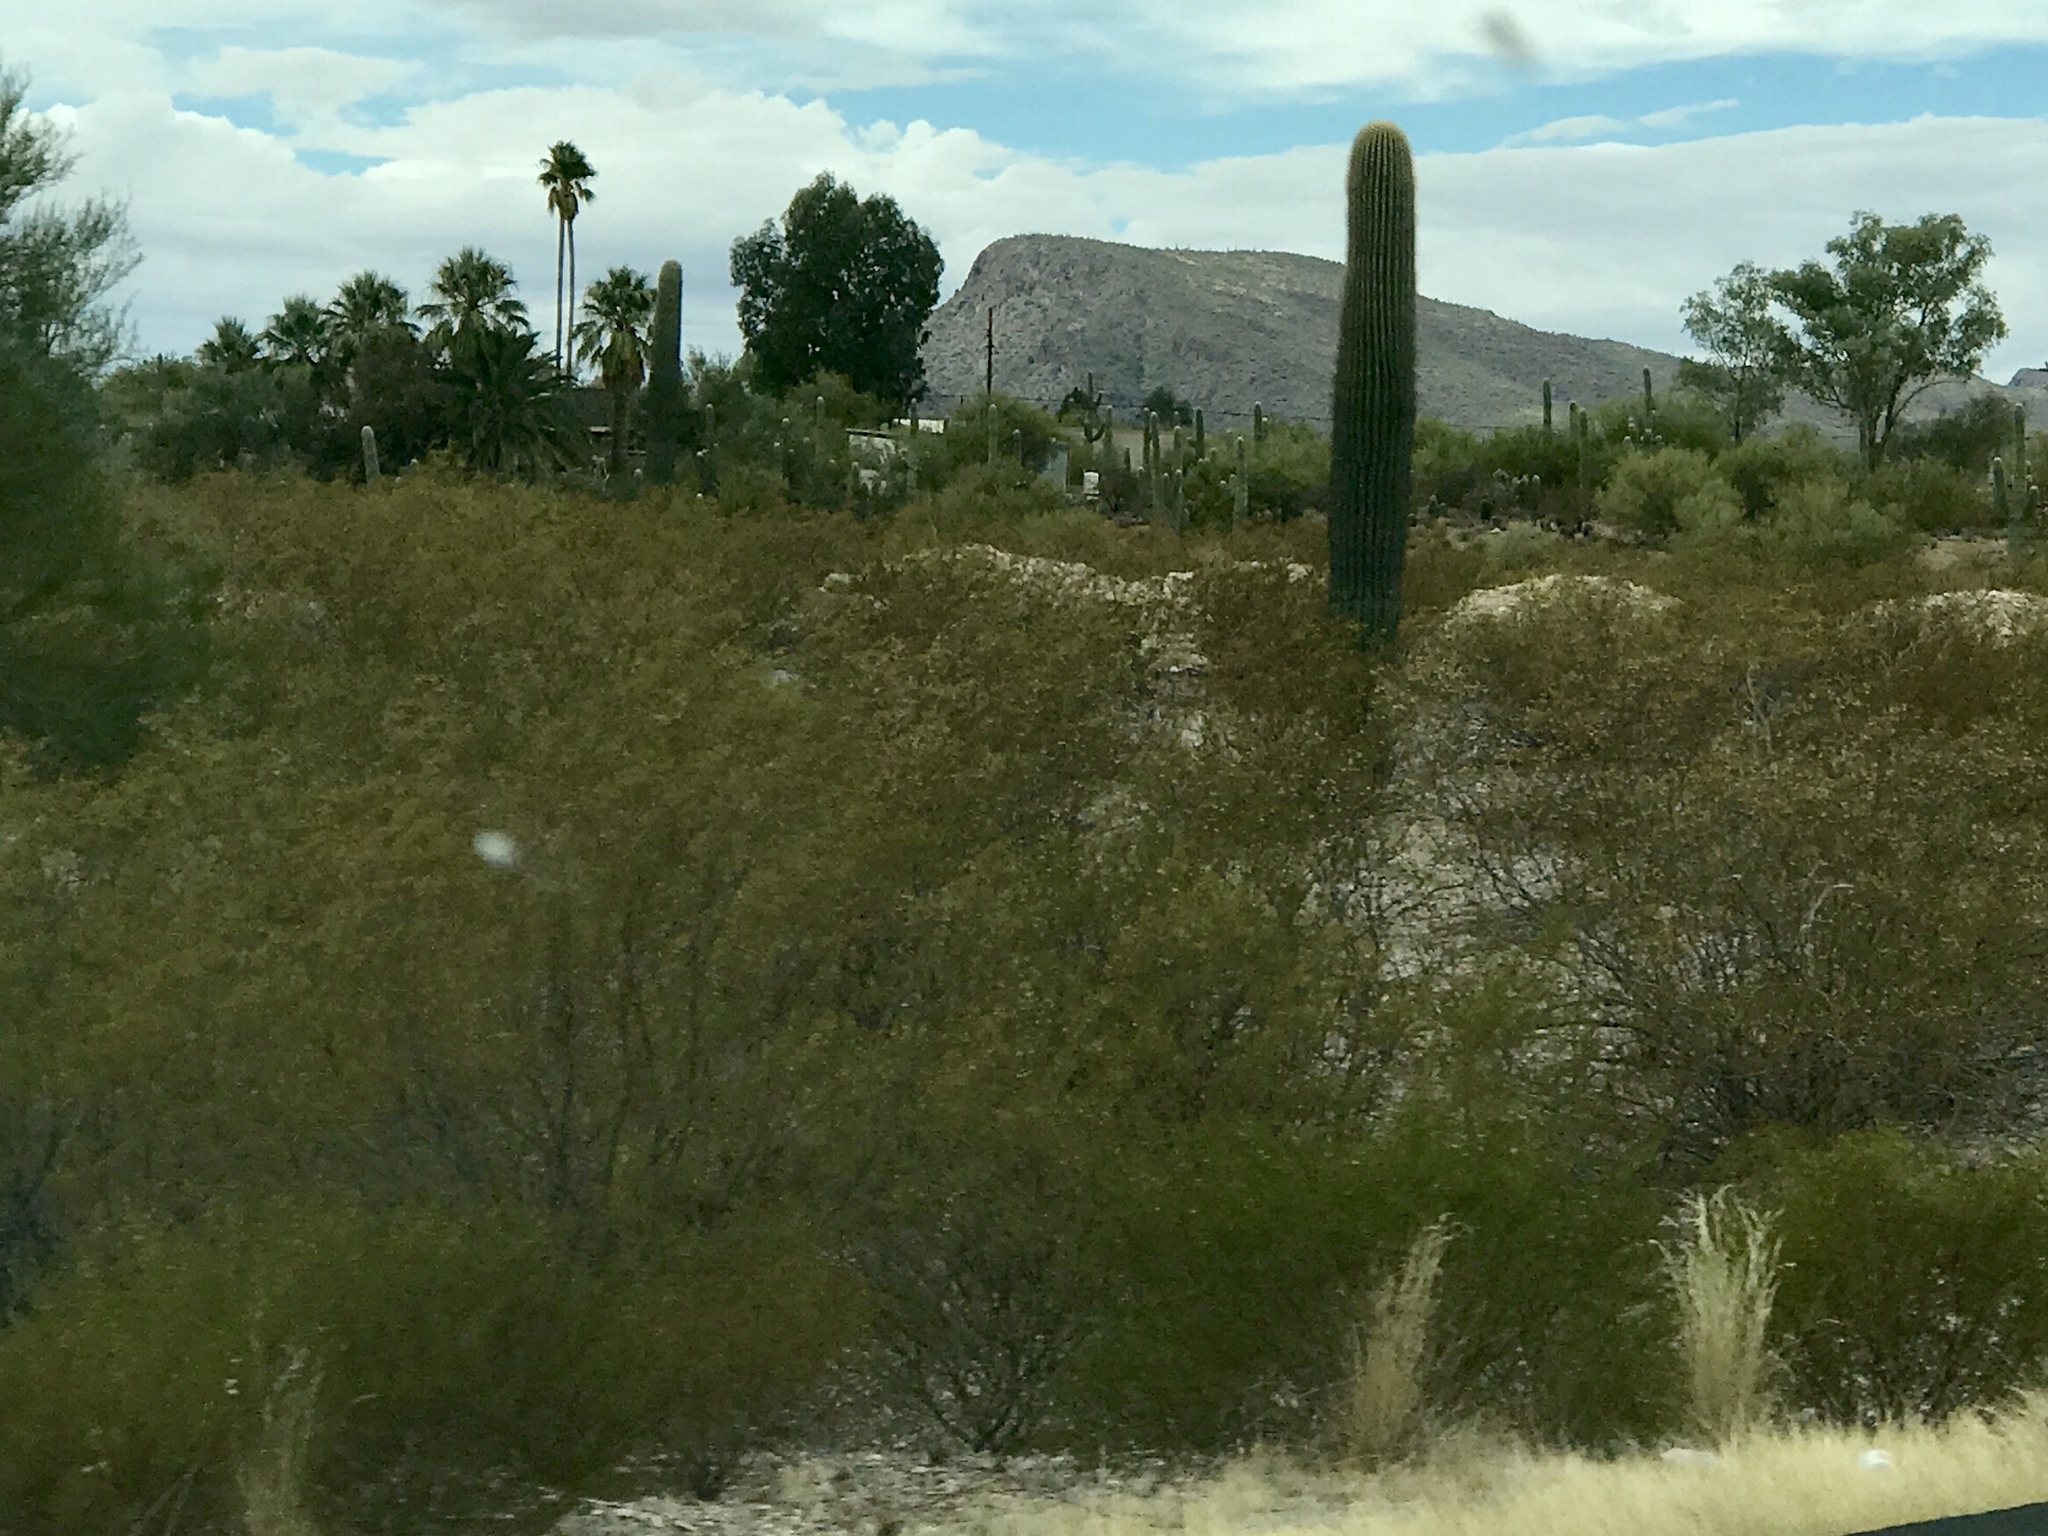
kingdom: Plantae
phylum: Tracheophyta
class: Magnoliopsida
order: Zygophyllales
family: Zygophyllaceae
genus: Larrea
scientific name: Larrea tridentata
